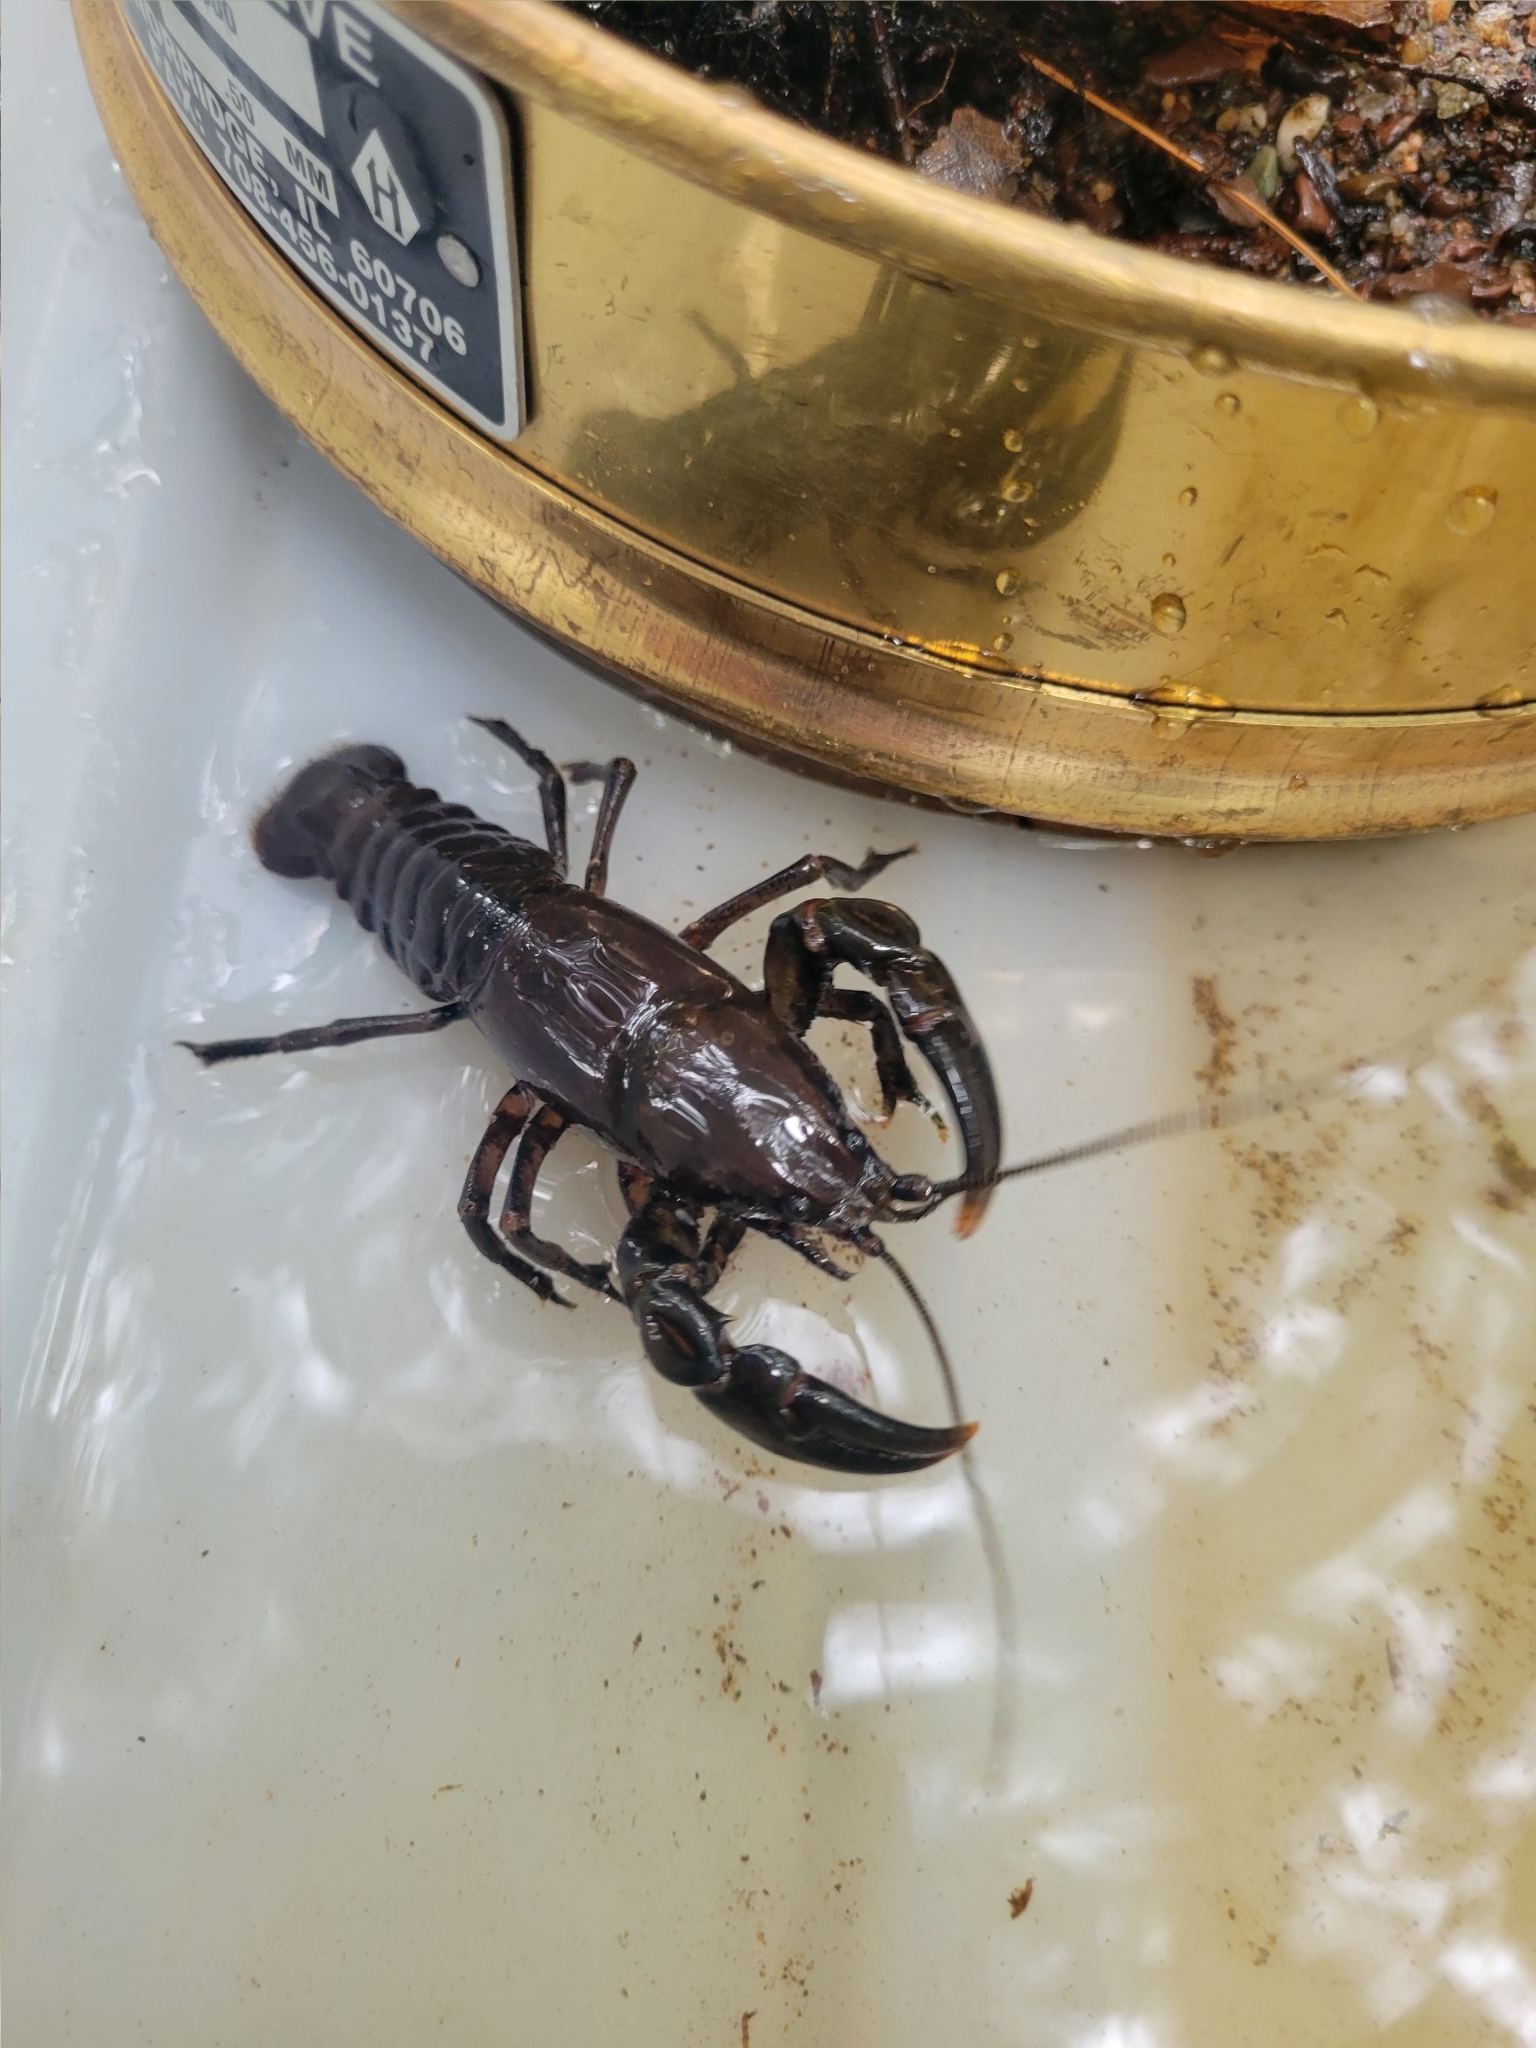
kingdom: Animalia
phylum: Arthropoda
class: Malacostraca
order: Decapoda
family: Cambaridae
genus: Cambarus
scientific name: Cambarus bartonii
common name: Appalachian brook crayfish
